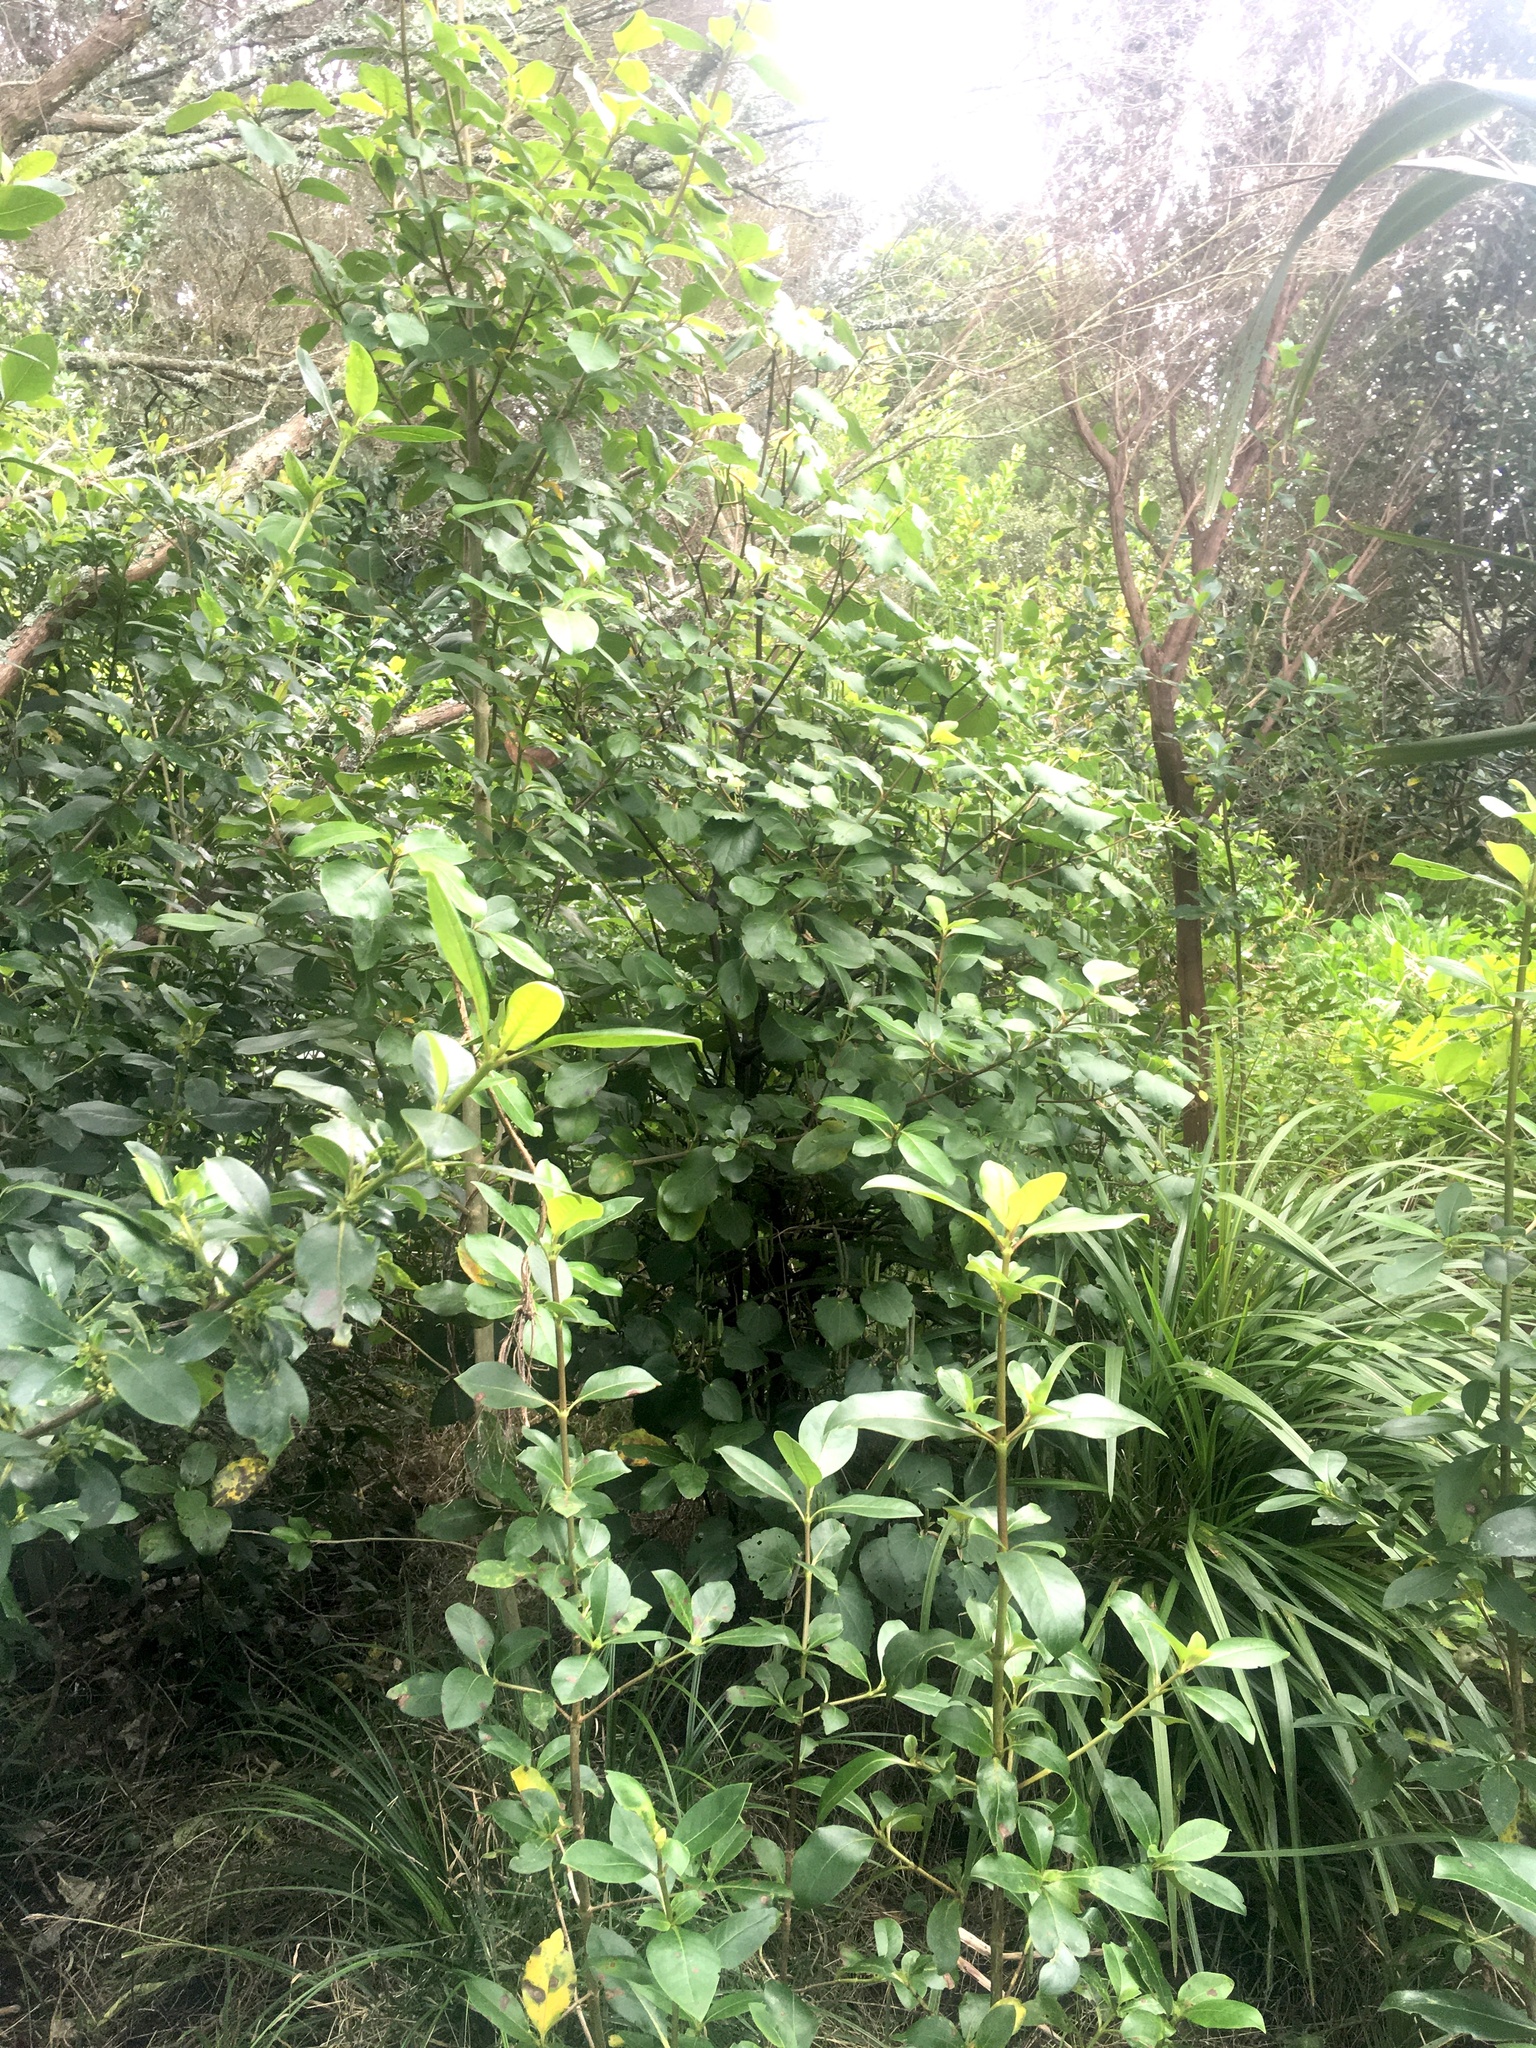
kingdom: Plantae
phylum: Tracheophyta
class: Magnoliopsida
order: Piperales
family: Piperaceae
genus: Macropiper
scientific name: Macropiper excelsum
